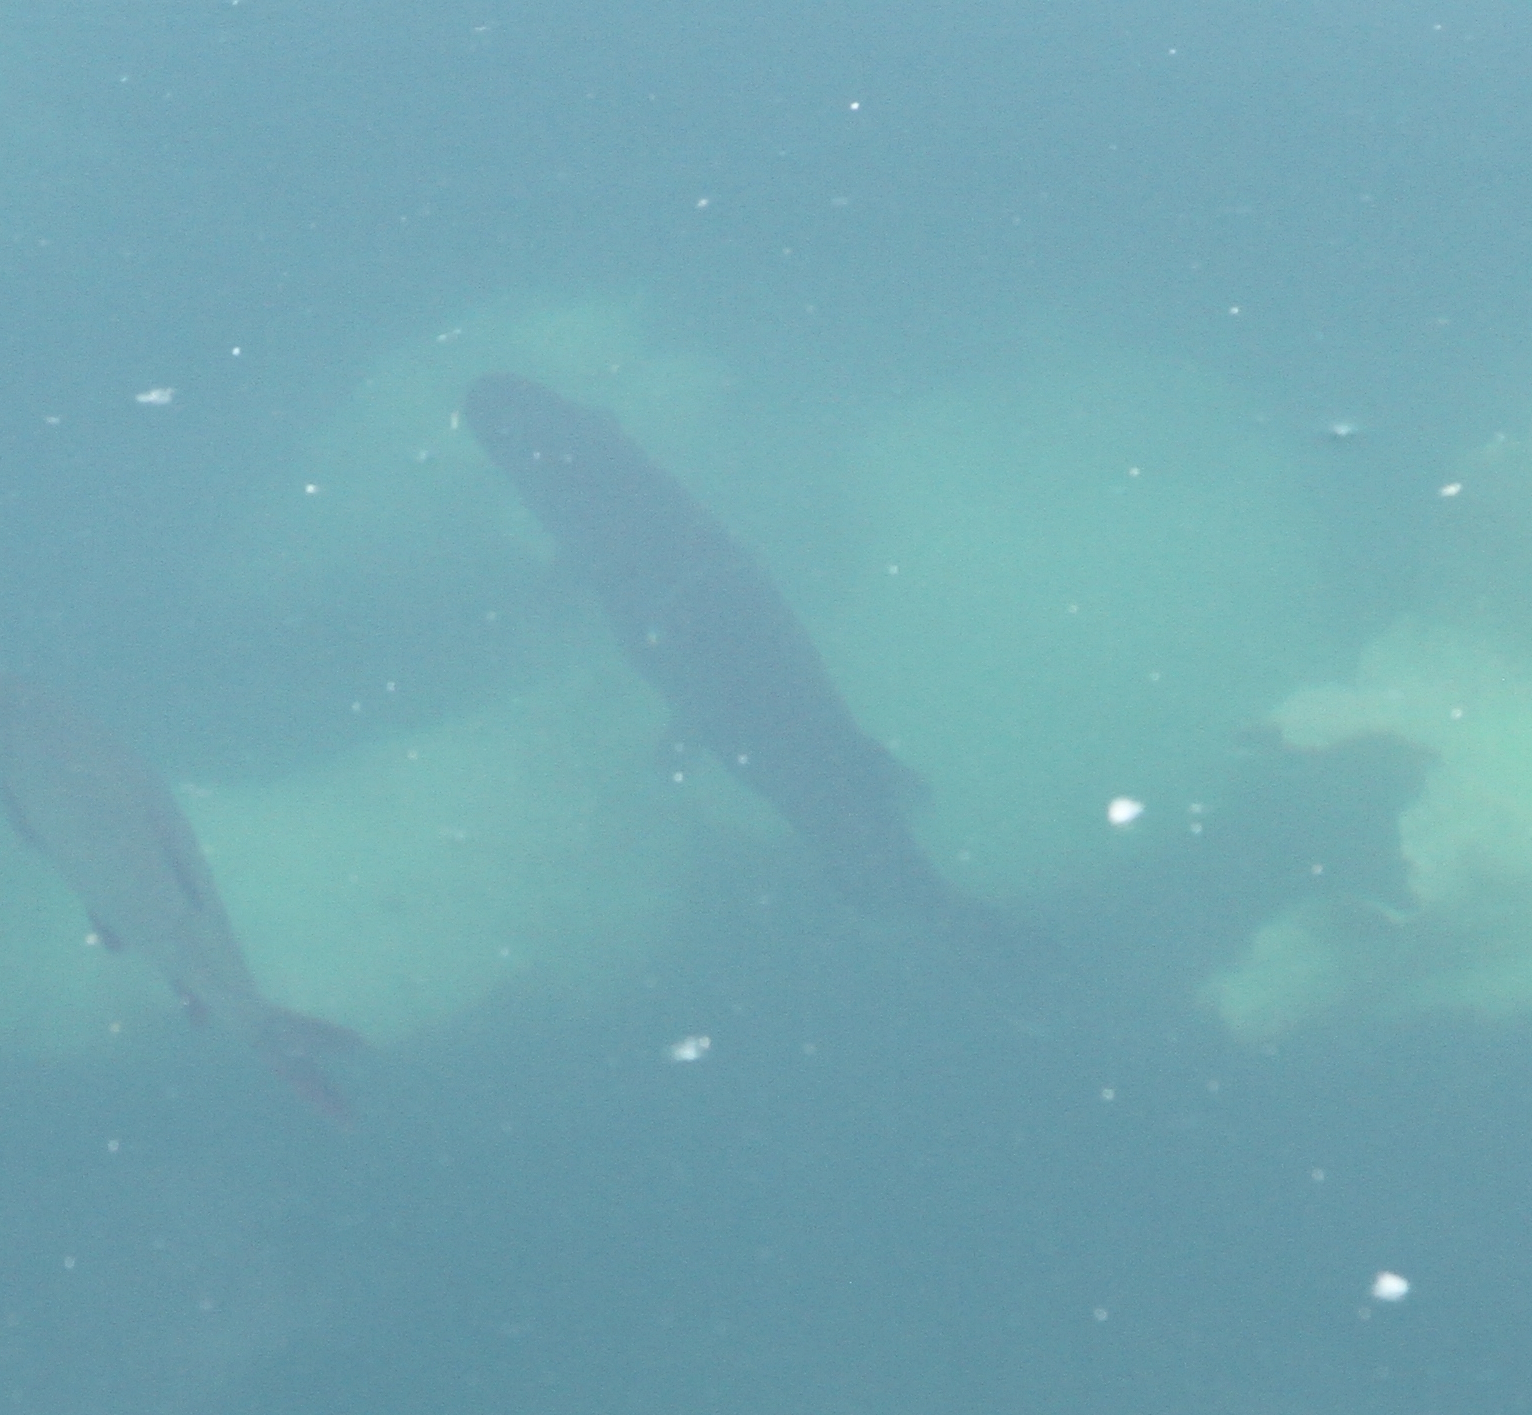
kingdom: Animalia
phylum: Chordata
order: Esociformes
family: Esocidae
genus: Esox
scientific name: Esox lucius
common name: Northern pike
